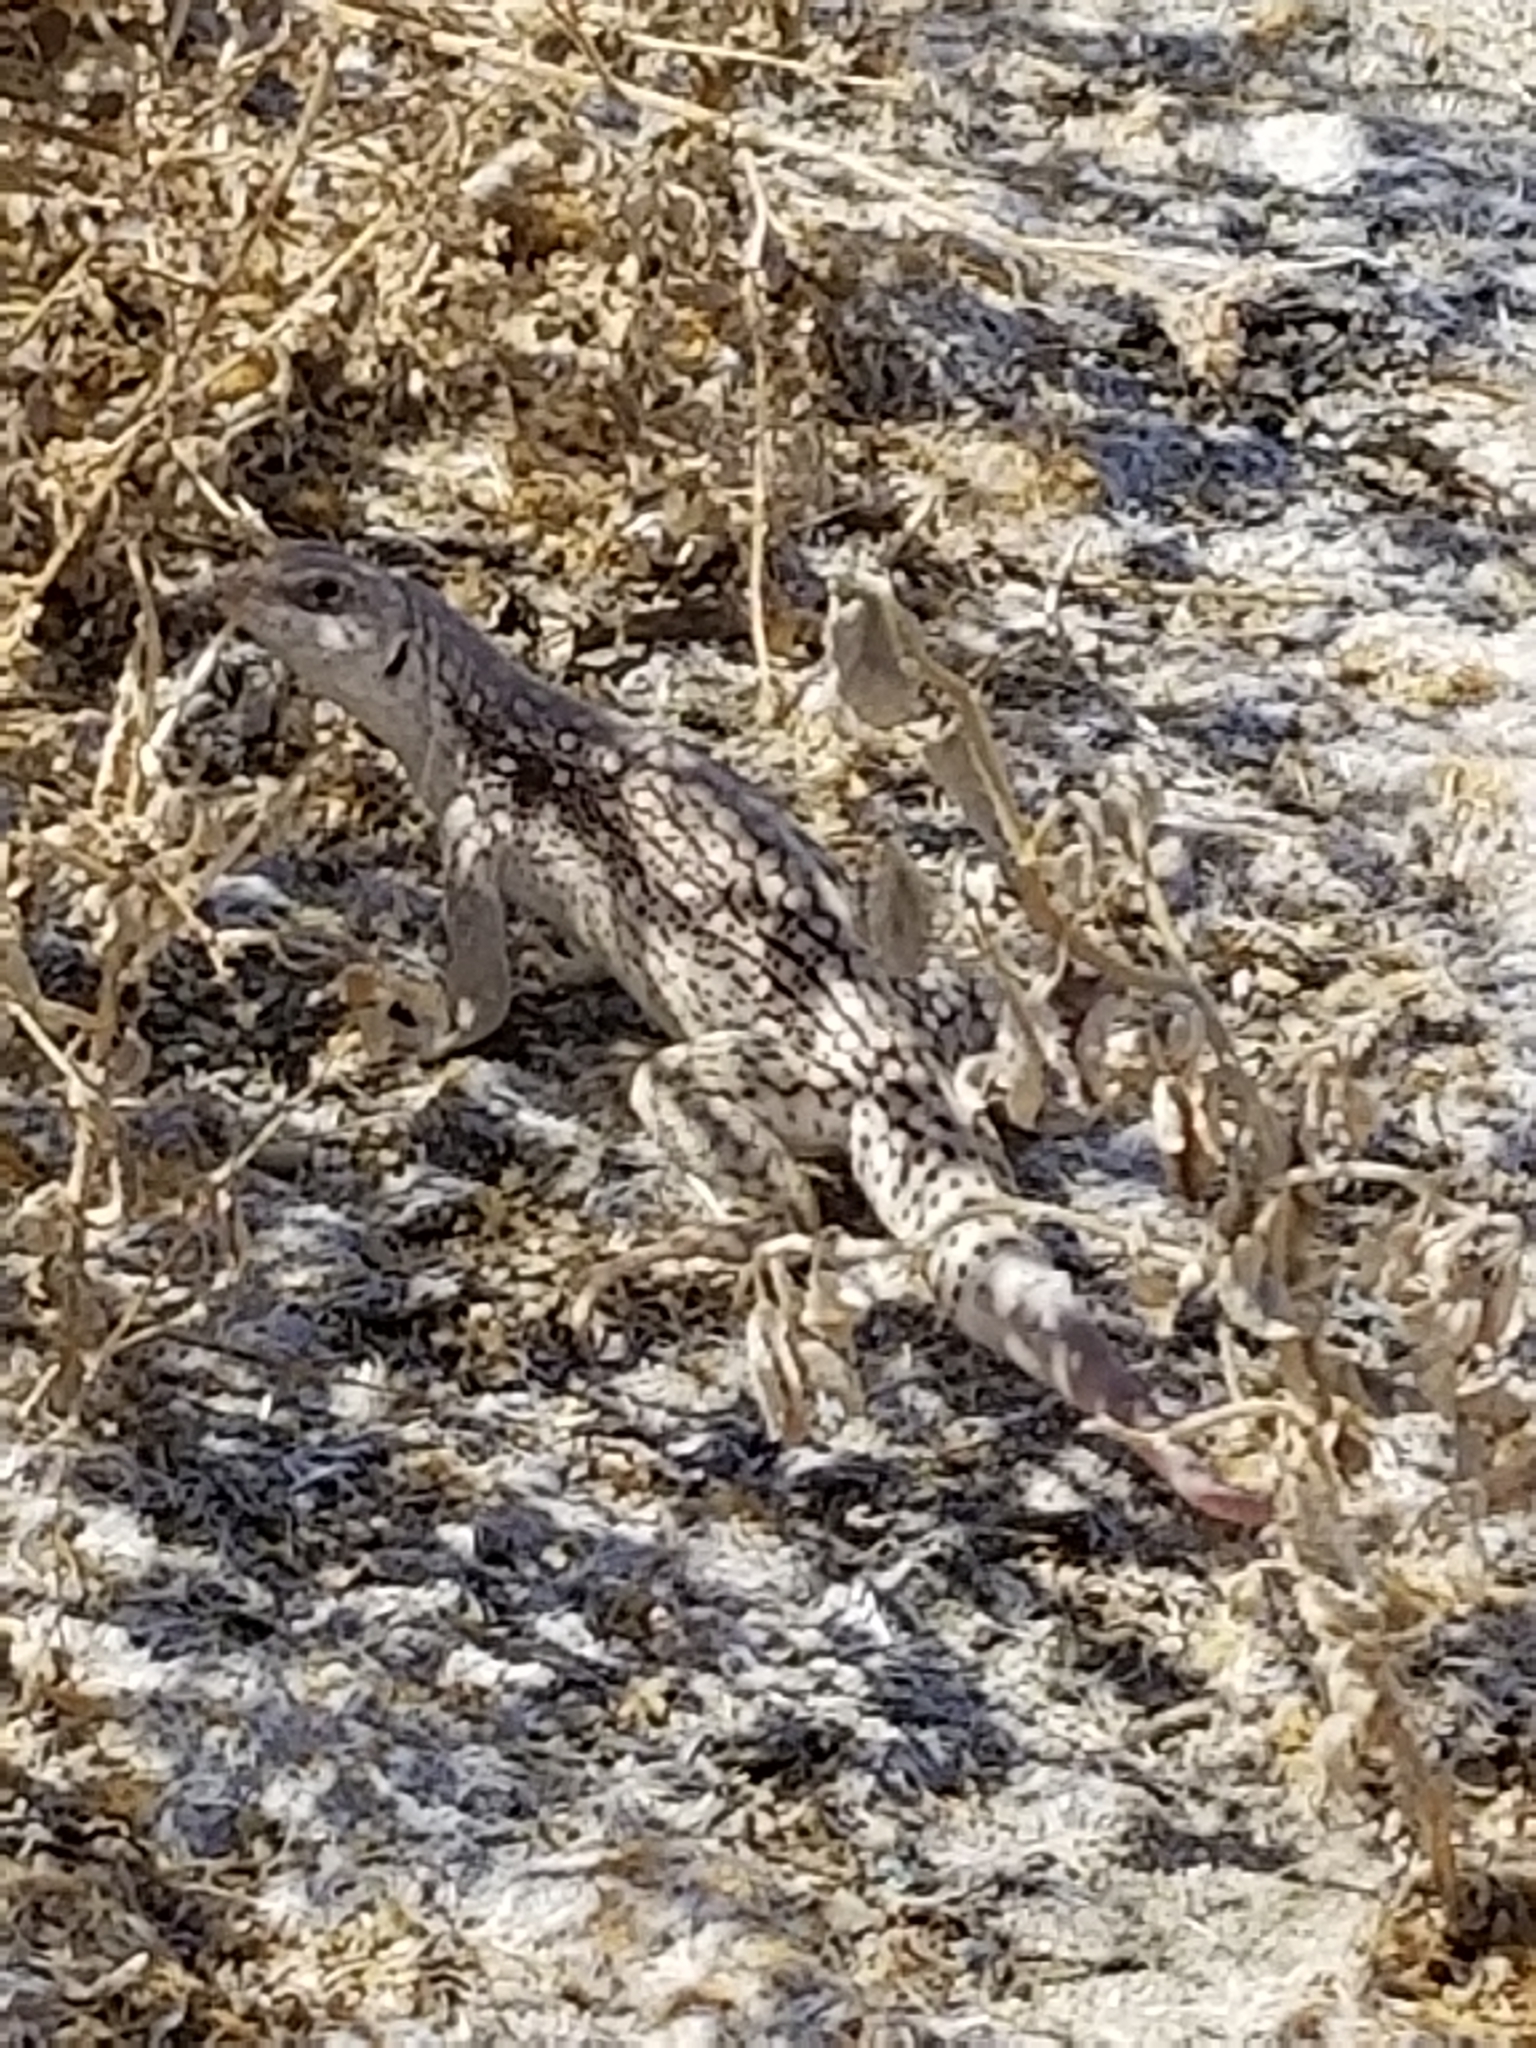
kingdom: Animalia
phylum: Chordata
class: Squamata
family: Iguanidae
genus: Dipsosaurus
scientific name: Dipsosaurus dorsalis
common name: Desert iguana
